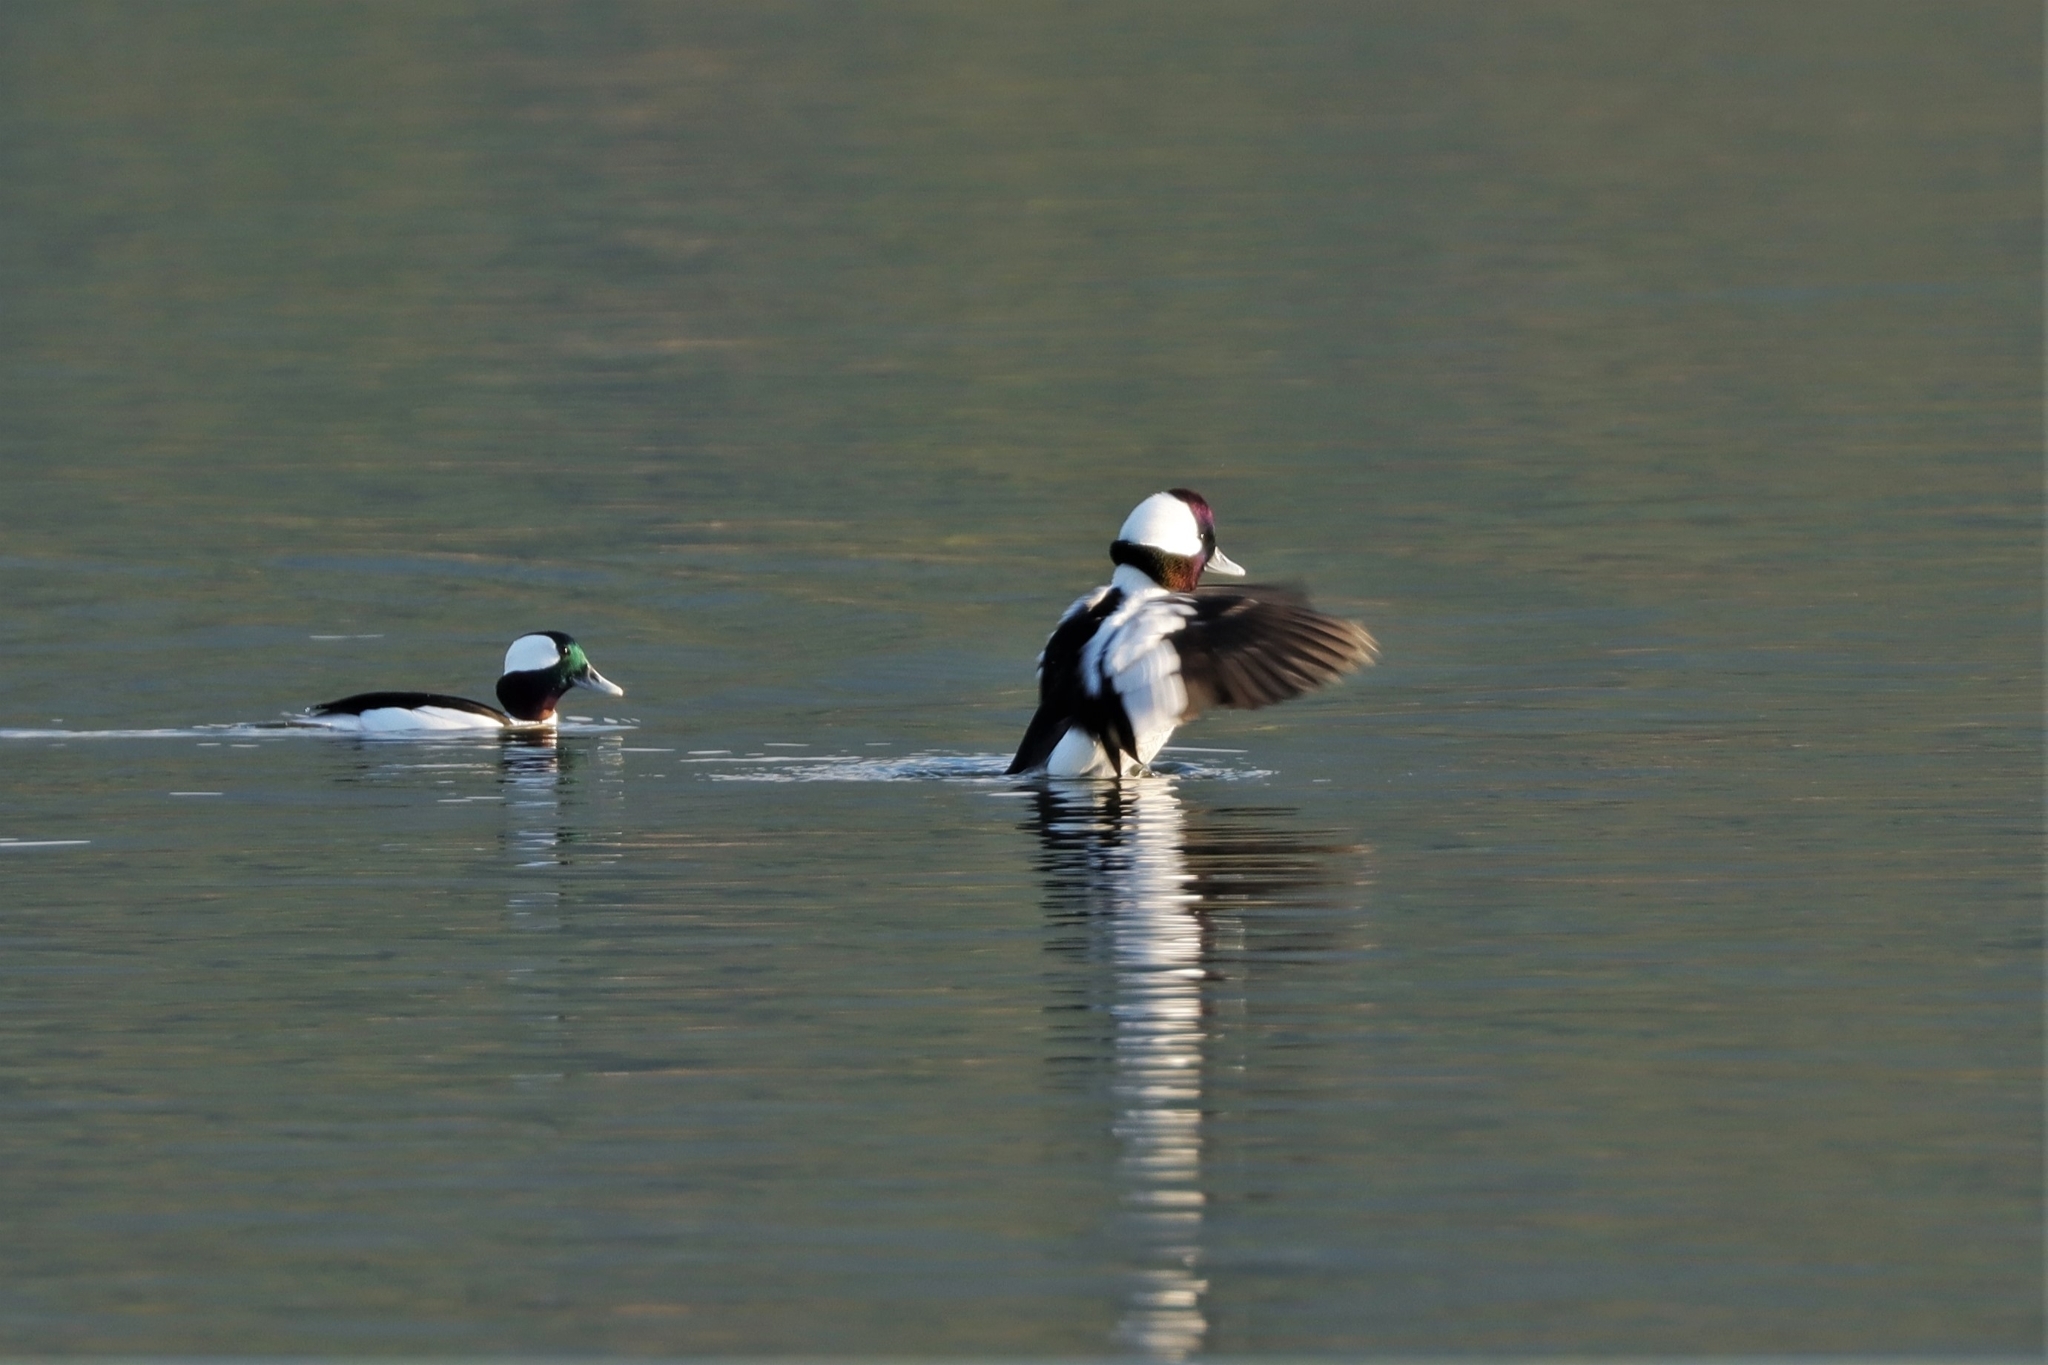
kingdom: Animalia
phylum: Chordata
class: Aves
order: Anseriformes
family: Anatidae
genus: Bucephala
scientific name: Bucephala albeola
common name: Bufflehead
